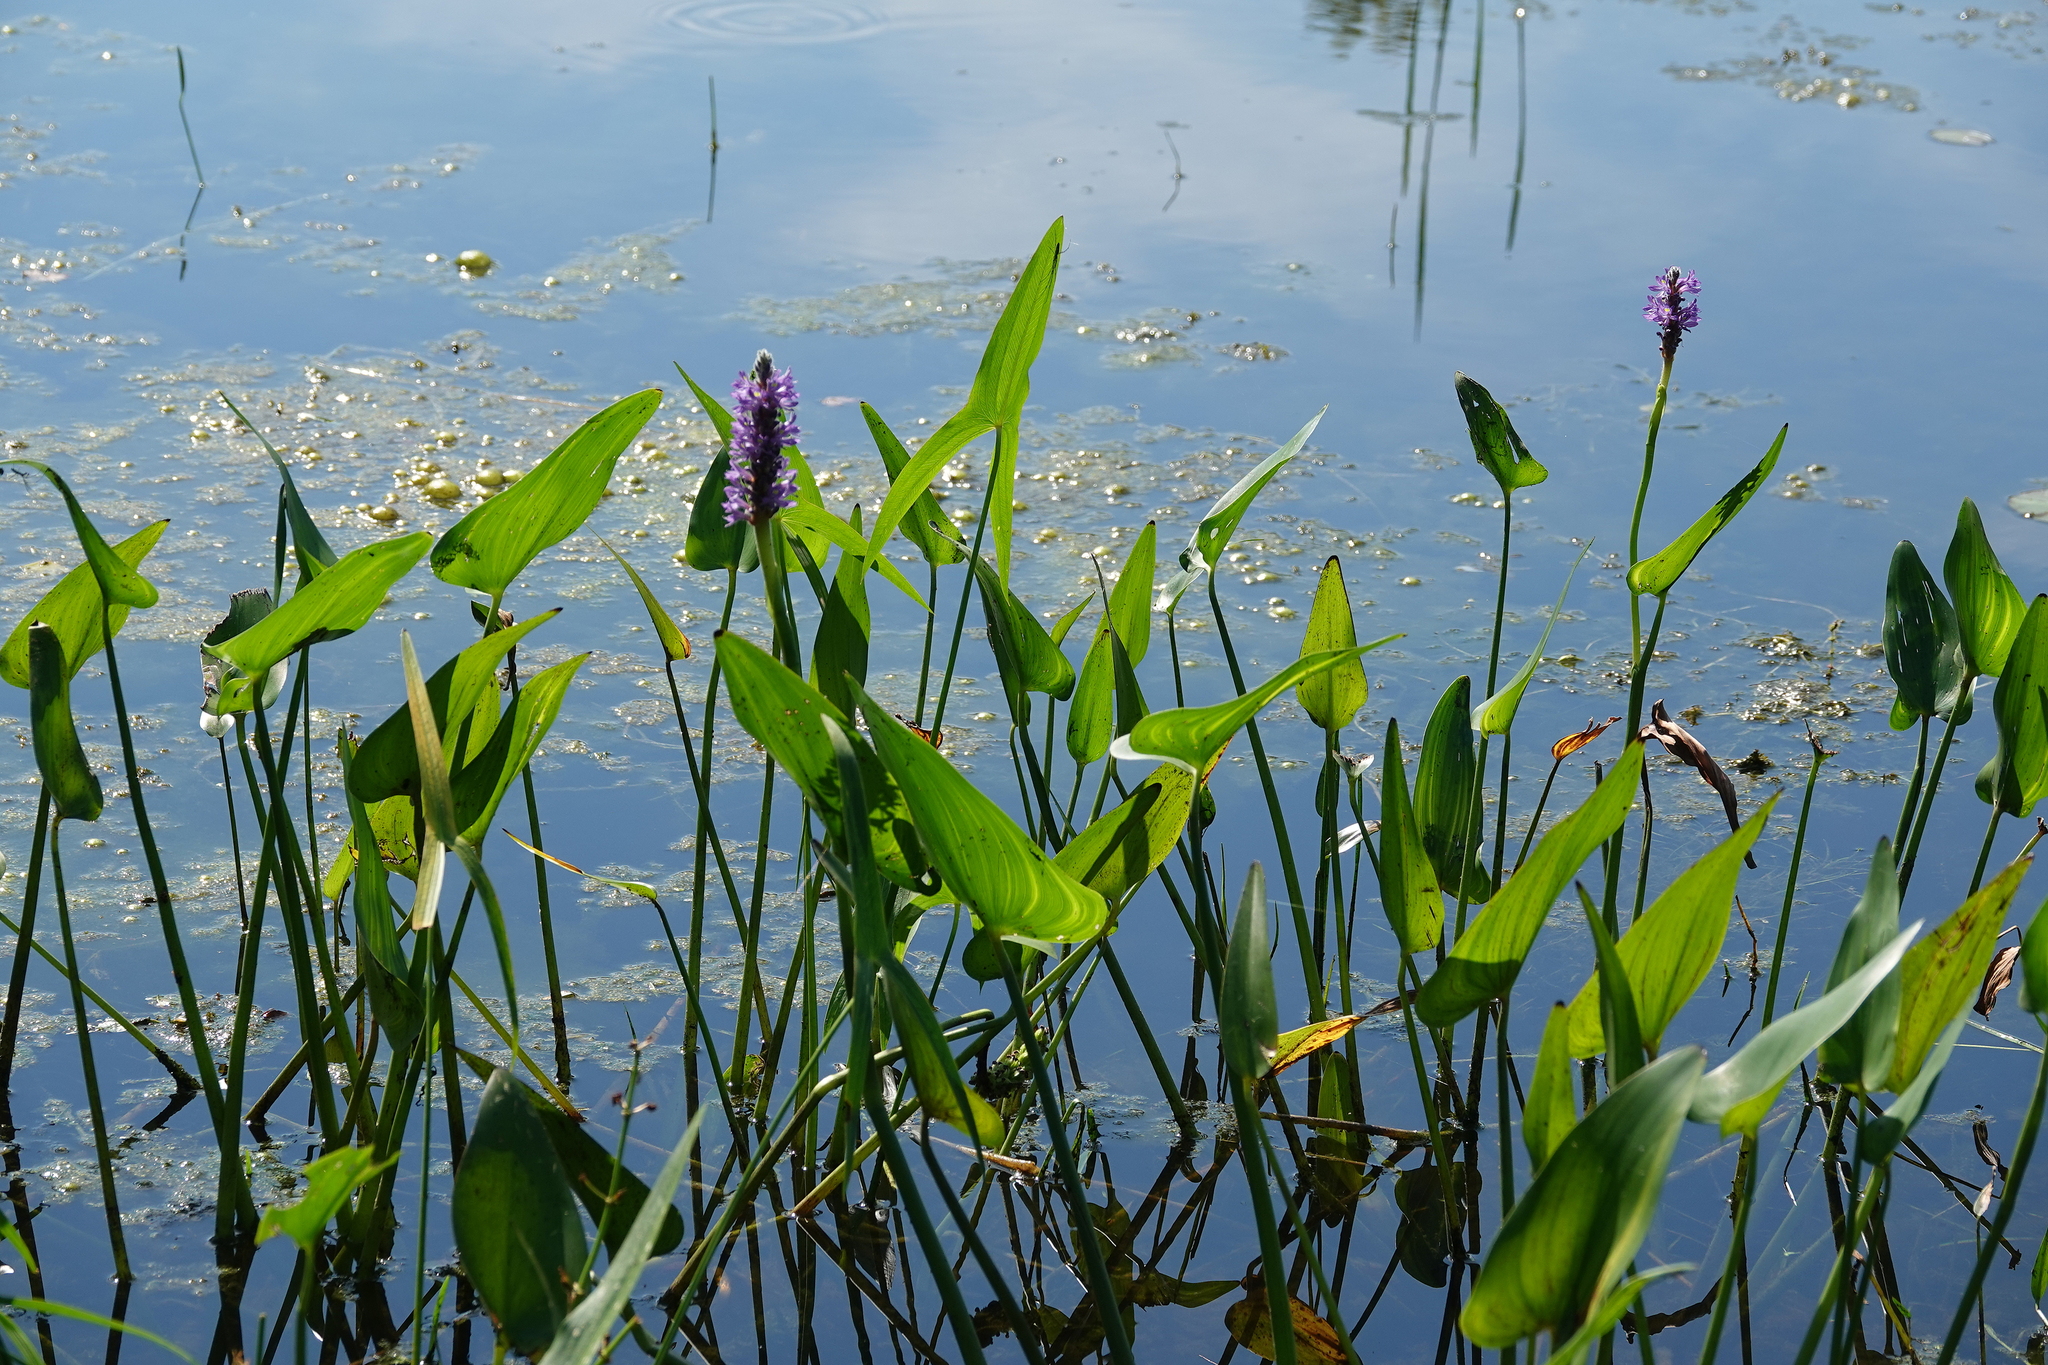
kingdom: Plantae
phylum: Tracheophyta
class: Liliopsida
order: Commelinales
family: Pontederiaceae
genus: Pontederia
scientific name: Pontederia cordata
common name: Pickerelweed
